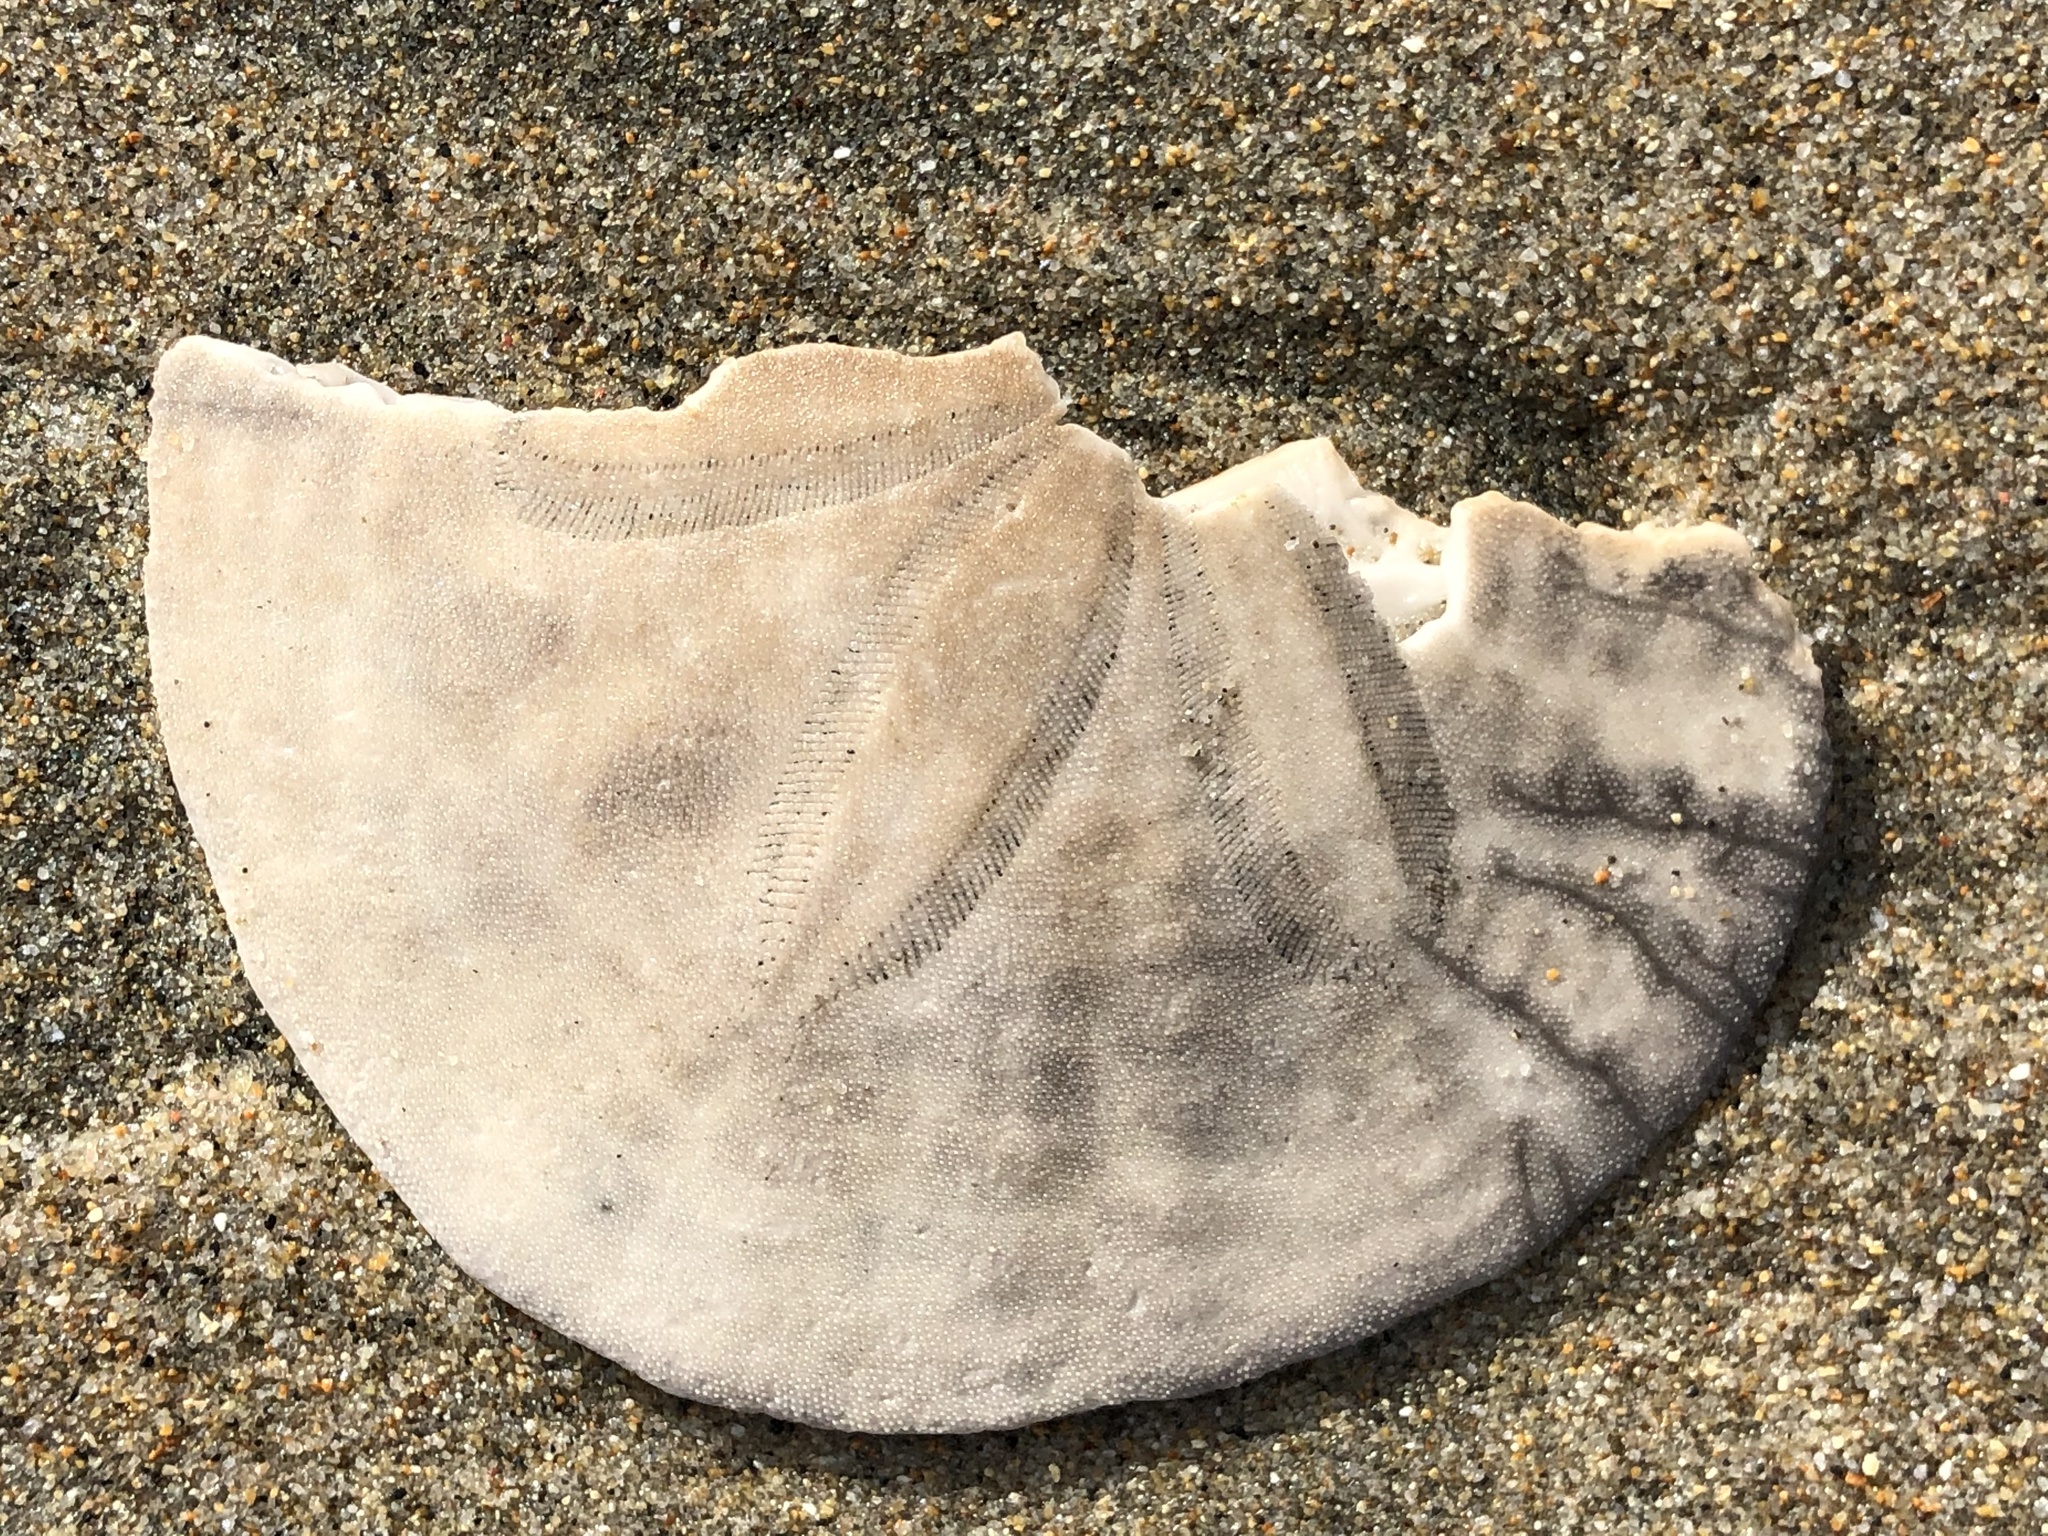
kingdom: Animalia
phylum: Echinodermata
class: Echinoidea
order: Echinolampadacea
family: Dendrasteridae
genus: Dendraster
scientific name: Dendraster excentricus
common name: Eccentric sand dollar sea urchin
